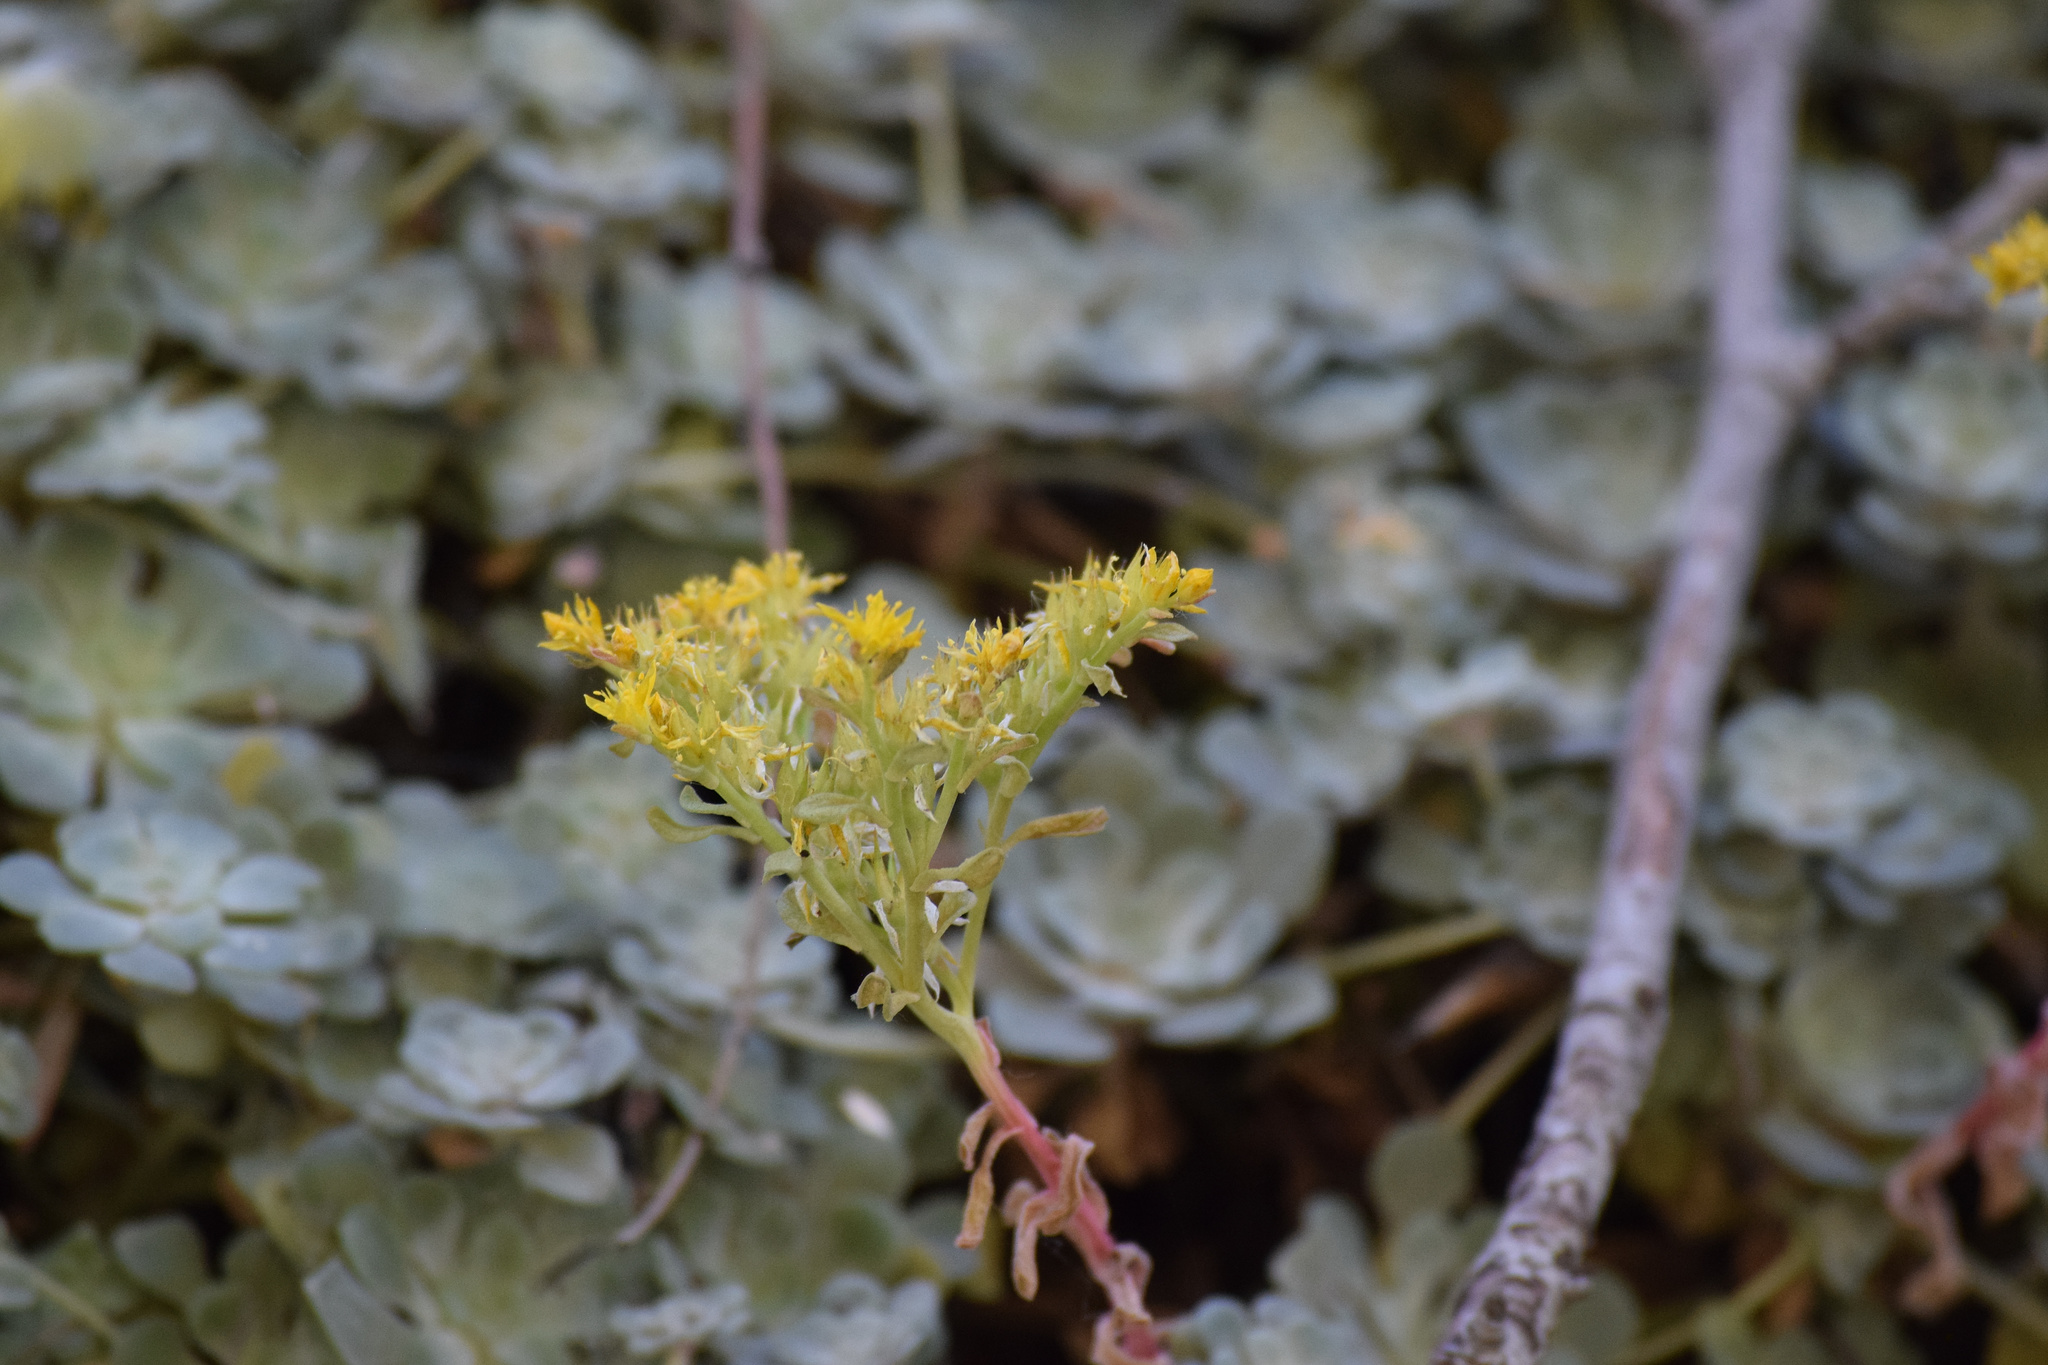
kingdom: Plantae
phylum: Tracheophyta
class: Magnoliopsida
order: Saxifragales
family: Crassulaceae
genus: Sedum
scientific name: Sedum spathulifolium
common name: Colorado stonecrop
